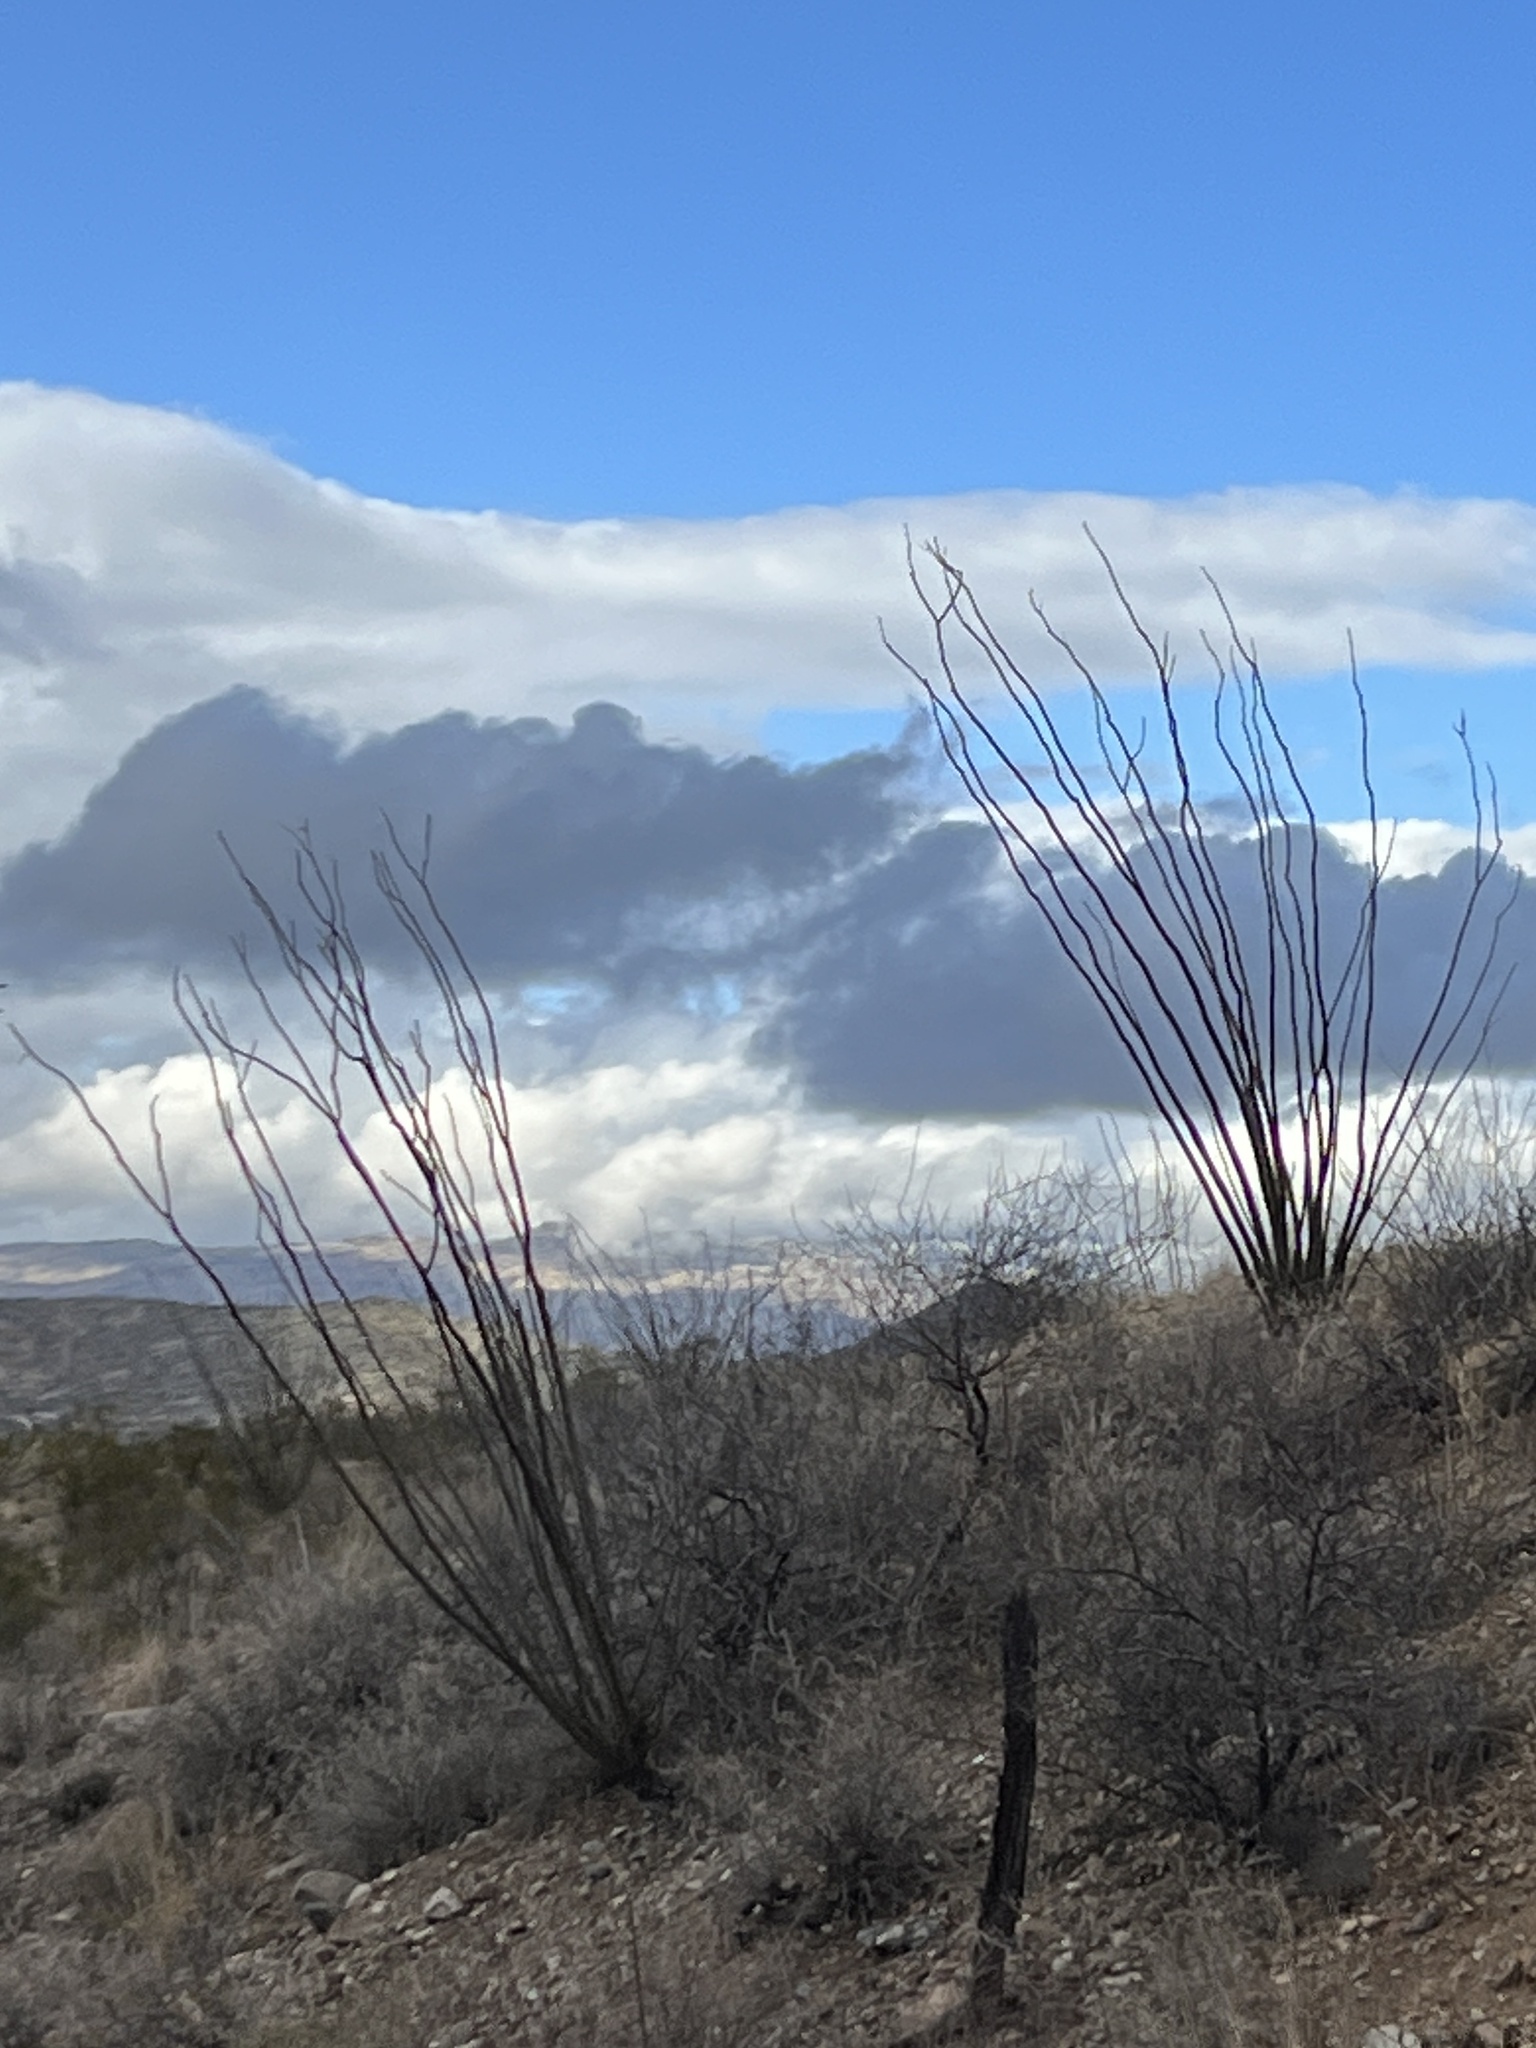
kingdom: Plantae
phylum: Tracheophyta
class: Magnoliopsida
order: Ericales
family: Fouquieriaceae
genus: Fouquieria
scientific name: Fouquieria splendens
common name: Vine-cactus
